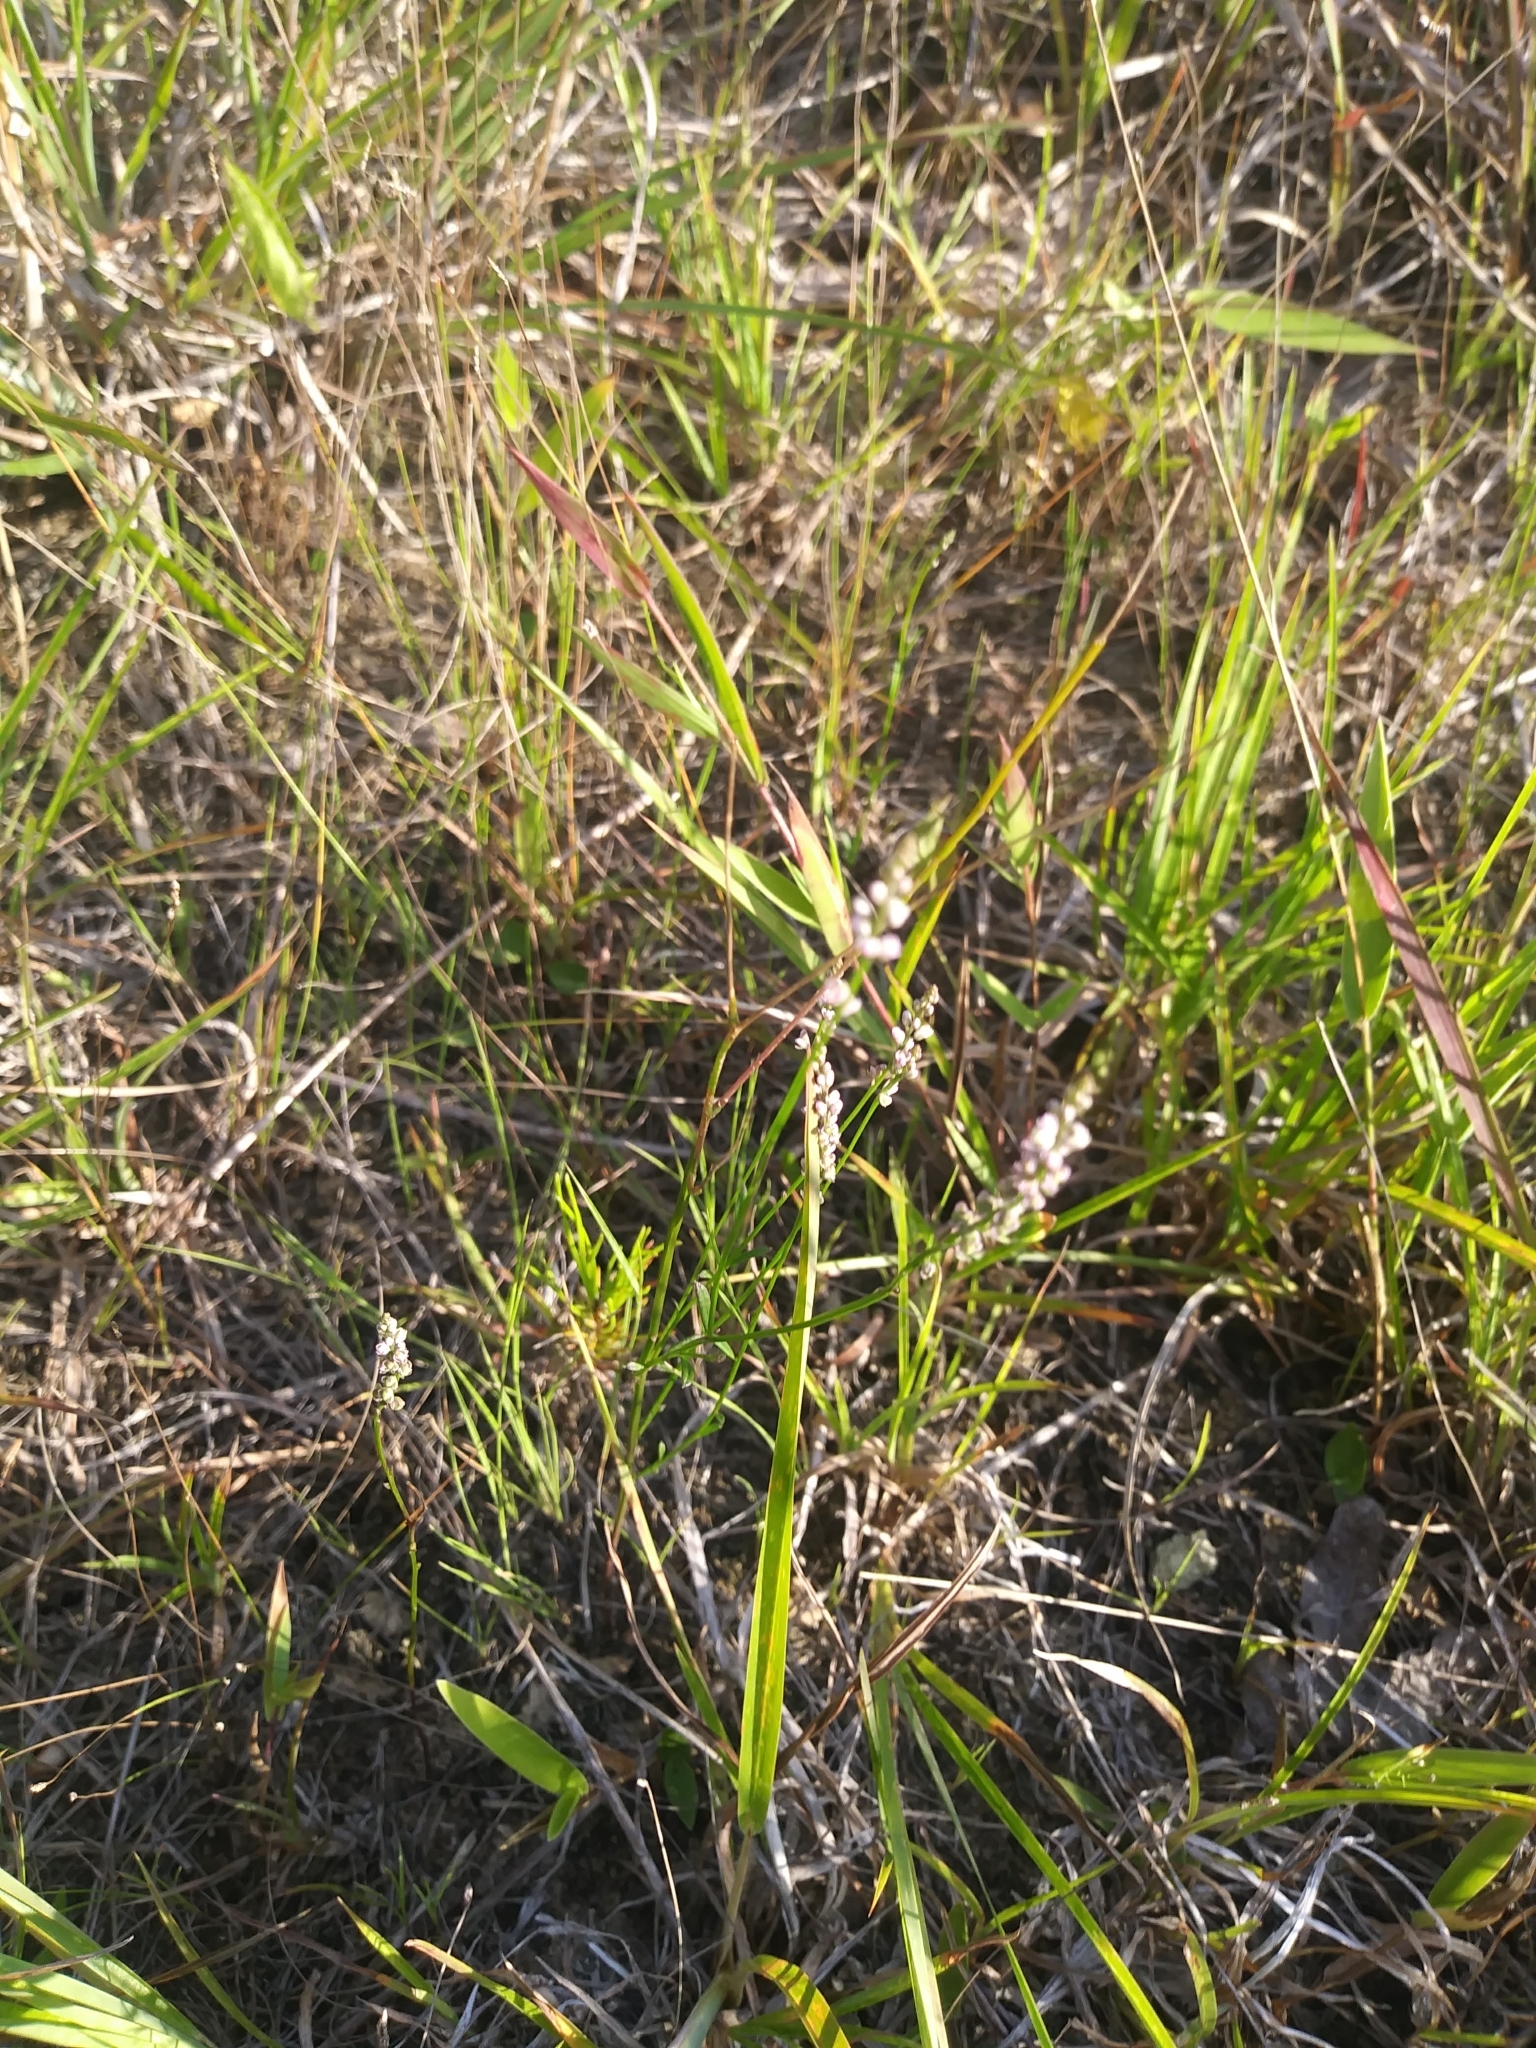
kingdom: Plantae
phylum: Tracheophyta
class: Magnoliopsida
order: Fabales
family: Polygalaceae
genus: Polygala
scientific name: Polygala verticillata
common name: Whorl milkwort
